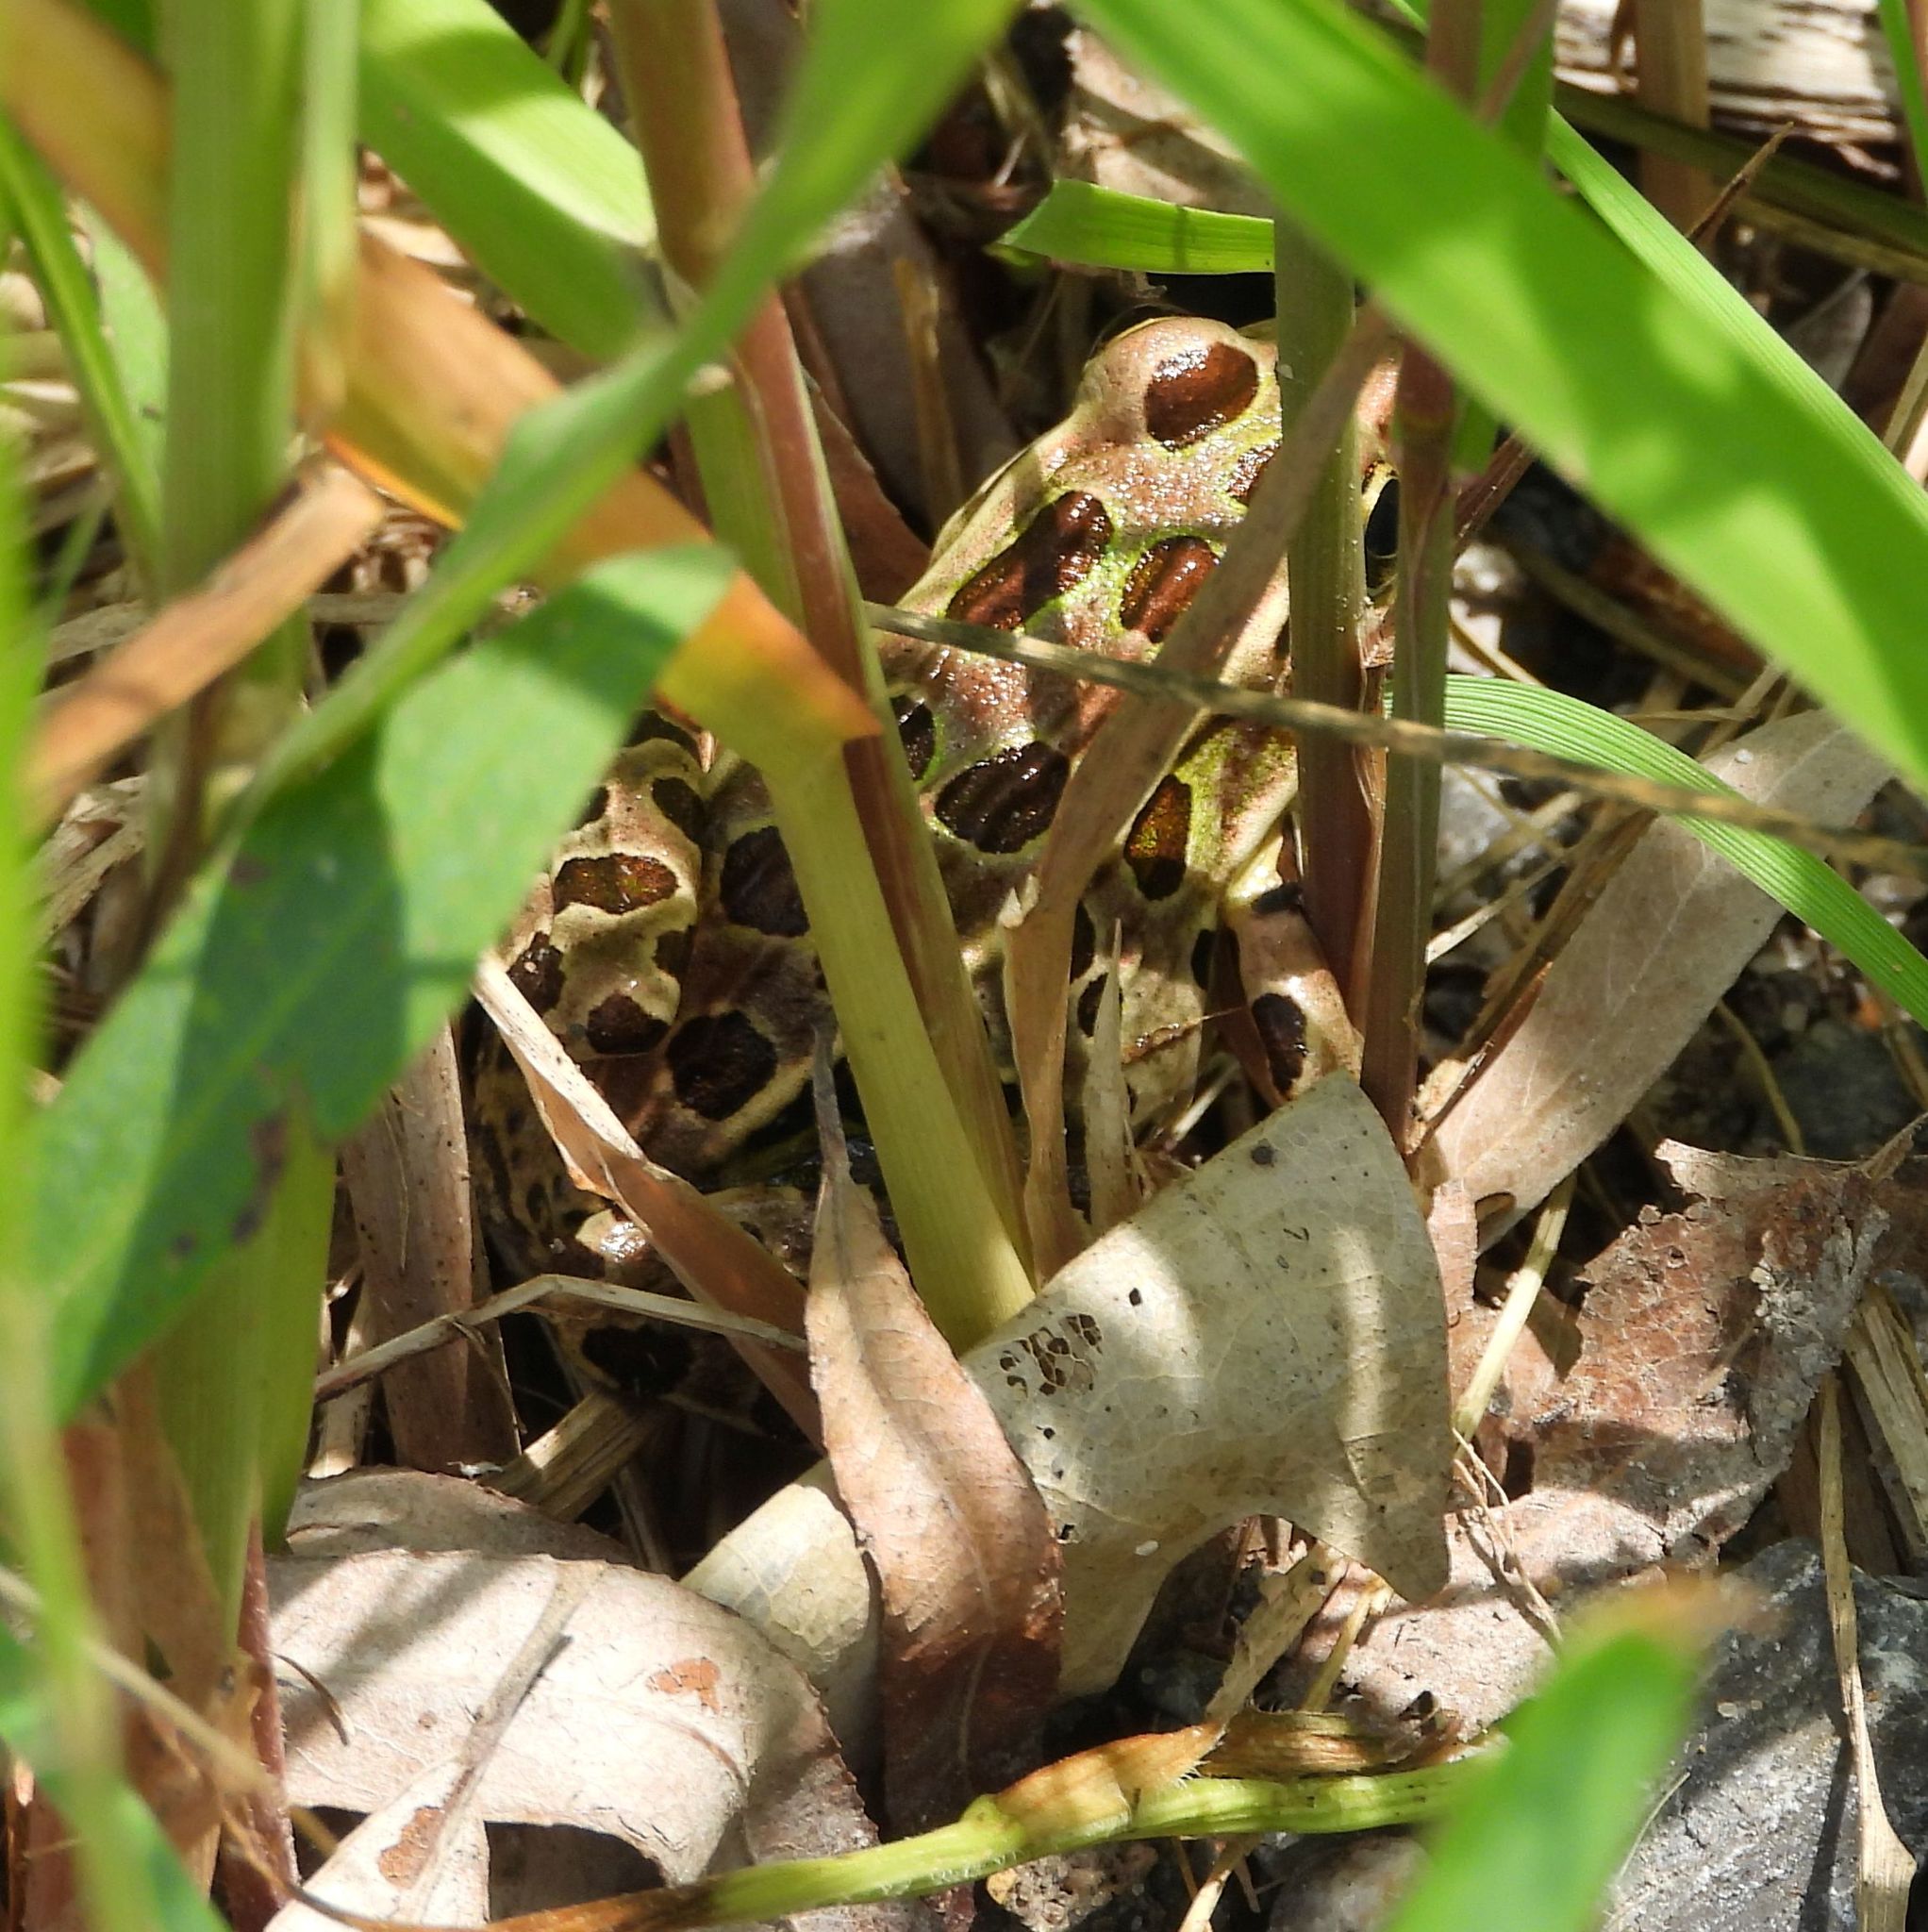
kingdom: Animalia
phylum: Chordata
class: Amphibia
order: Anura
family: Ranidae
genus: Lithobates
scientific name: Lithobates pipiens
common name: Northern leopard frog
